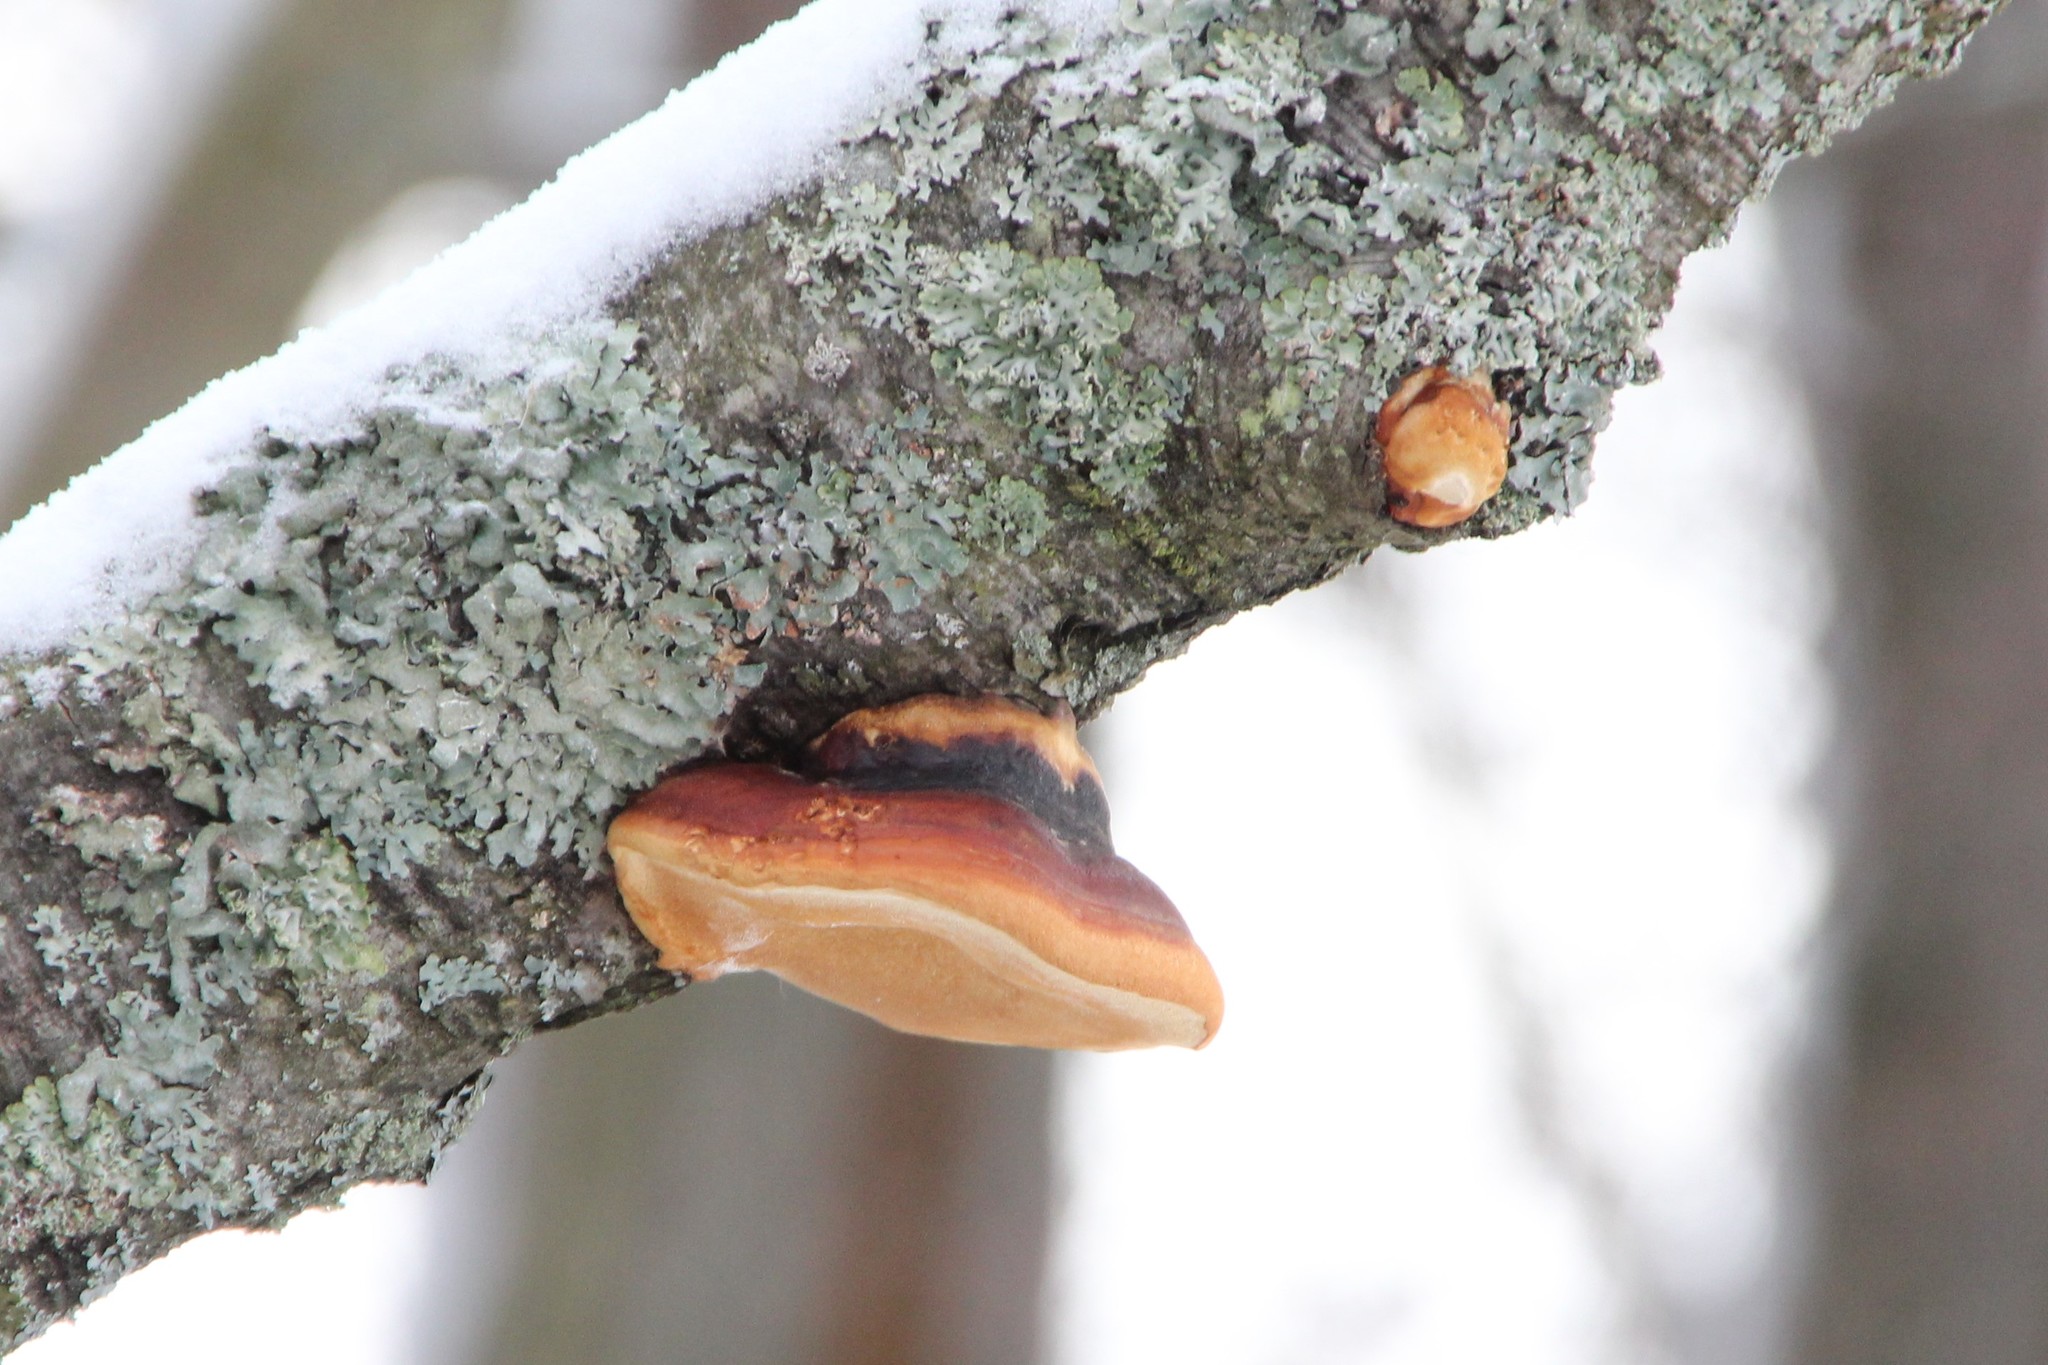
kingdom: Fungi
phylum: Basidiomycota
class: Agaricomycetes
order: Polyporales
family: Fomitopsidaceae
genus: Fomitopsis
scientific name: Fomitopsis pinicola
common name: Red-belted bracket
